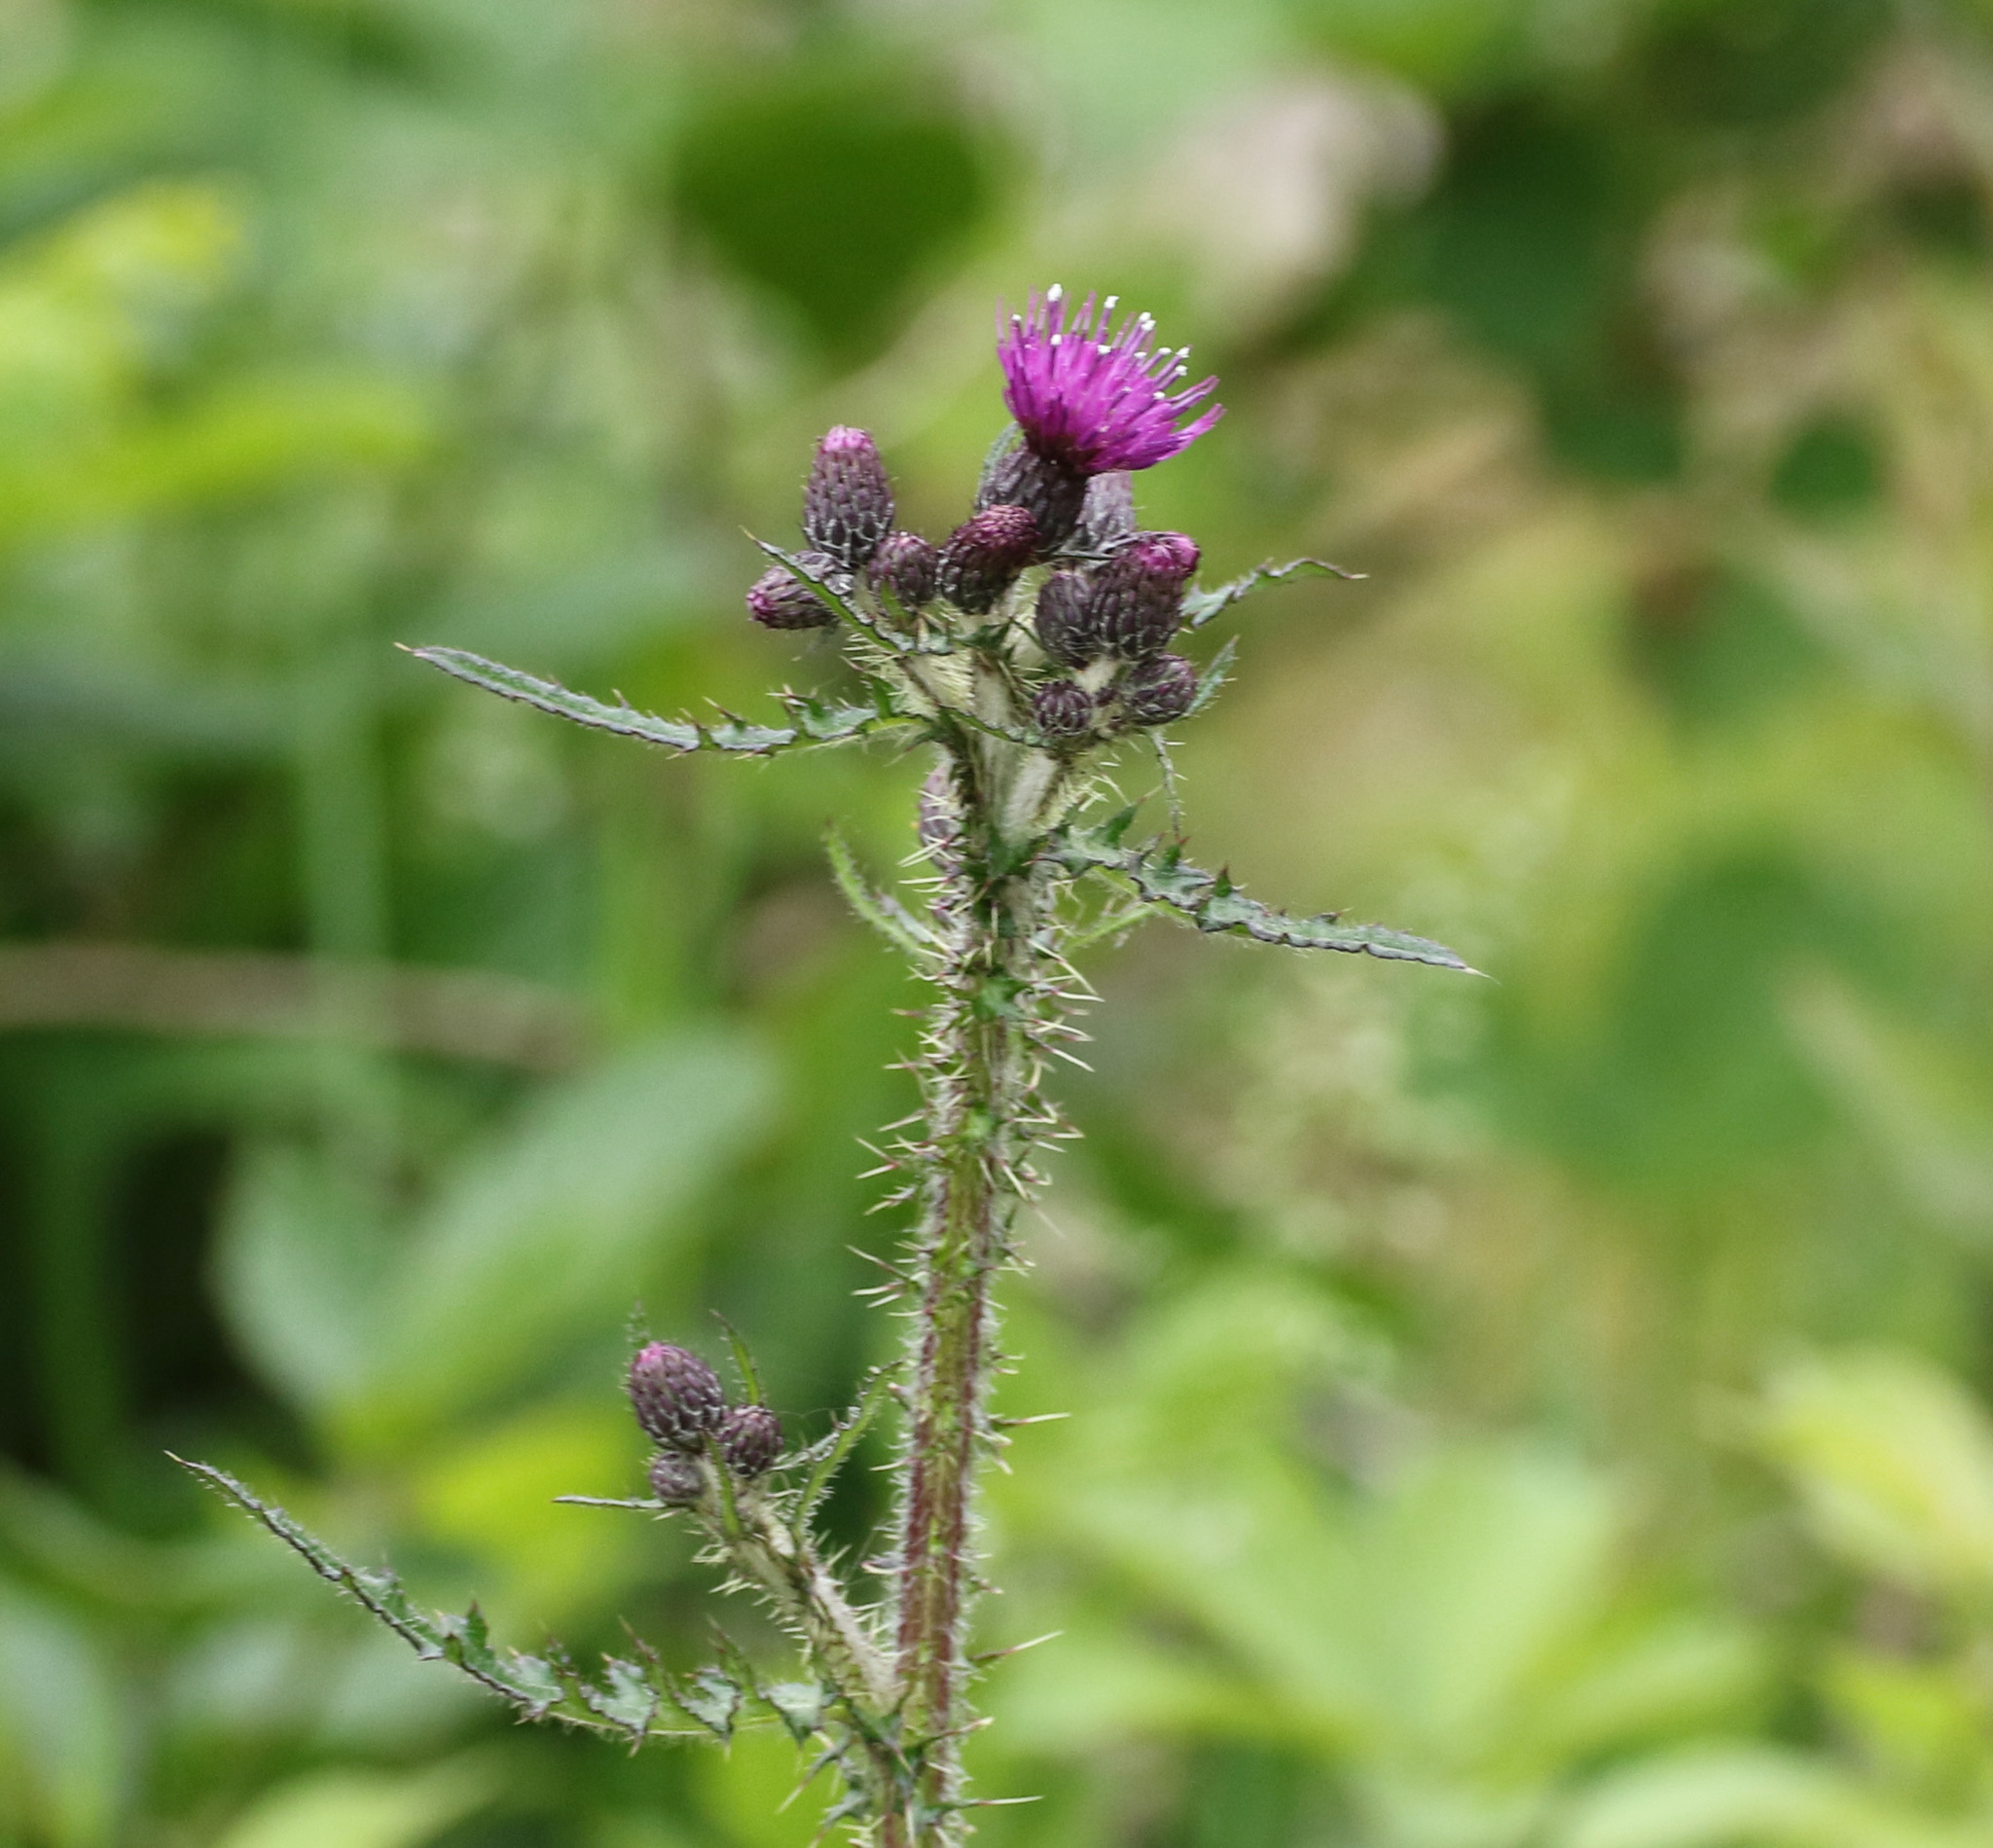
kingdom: Plantae
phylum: Tracheophyta
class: Magnoliopsida
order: Asterales
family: Asteraceae
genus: Cirsium
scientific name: Cirsium palustre
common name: Marsh thistle
